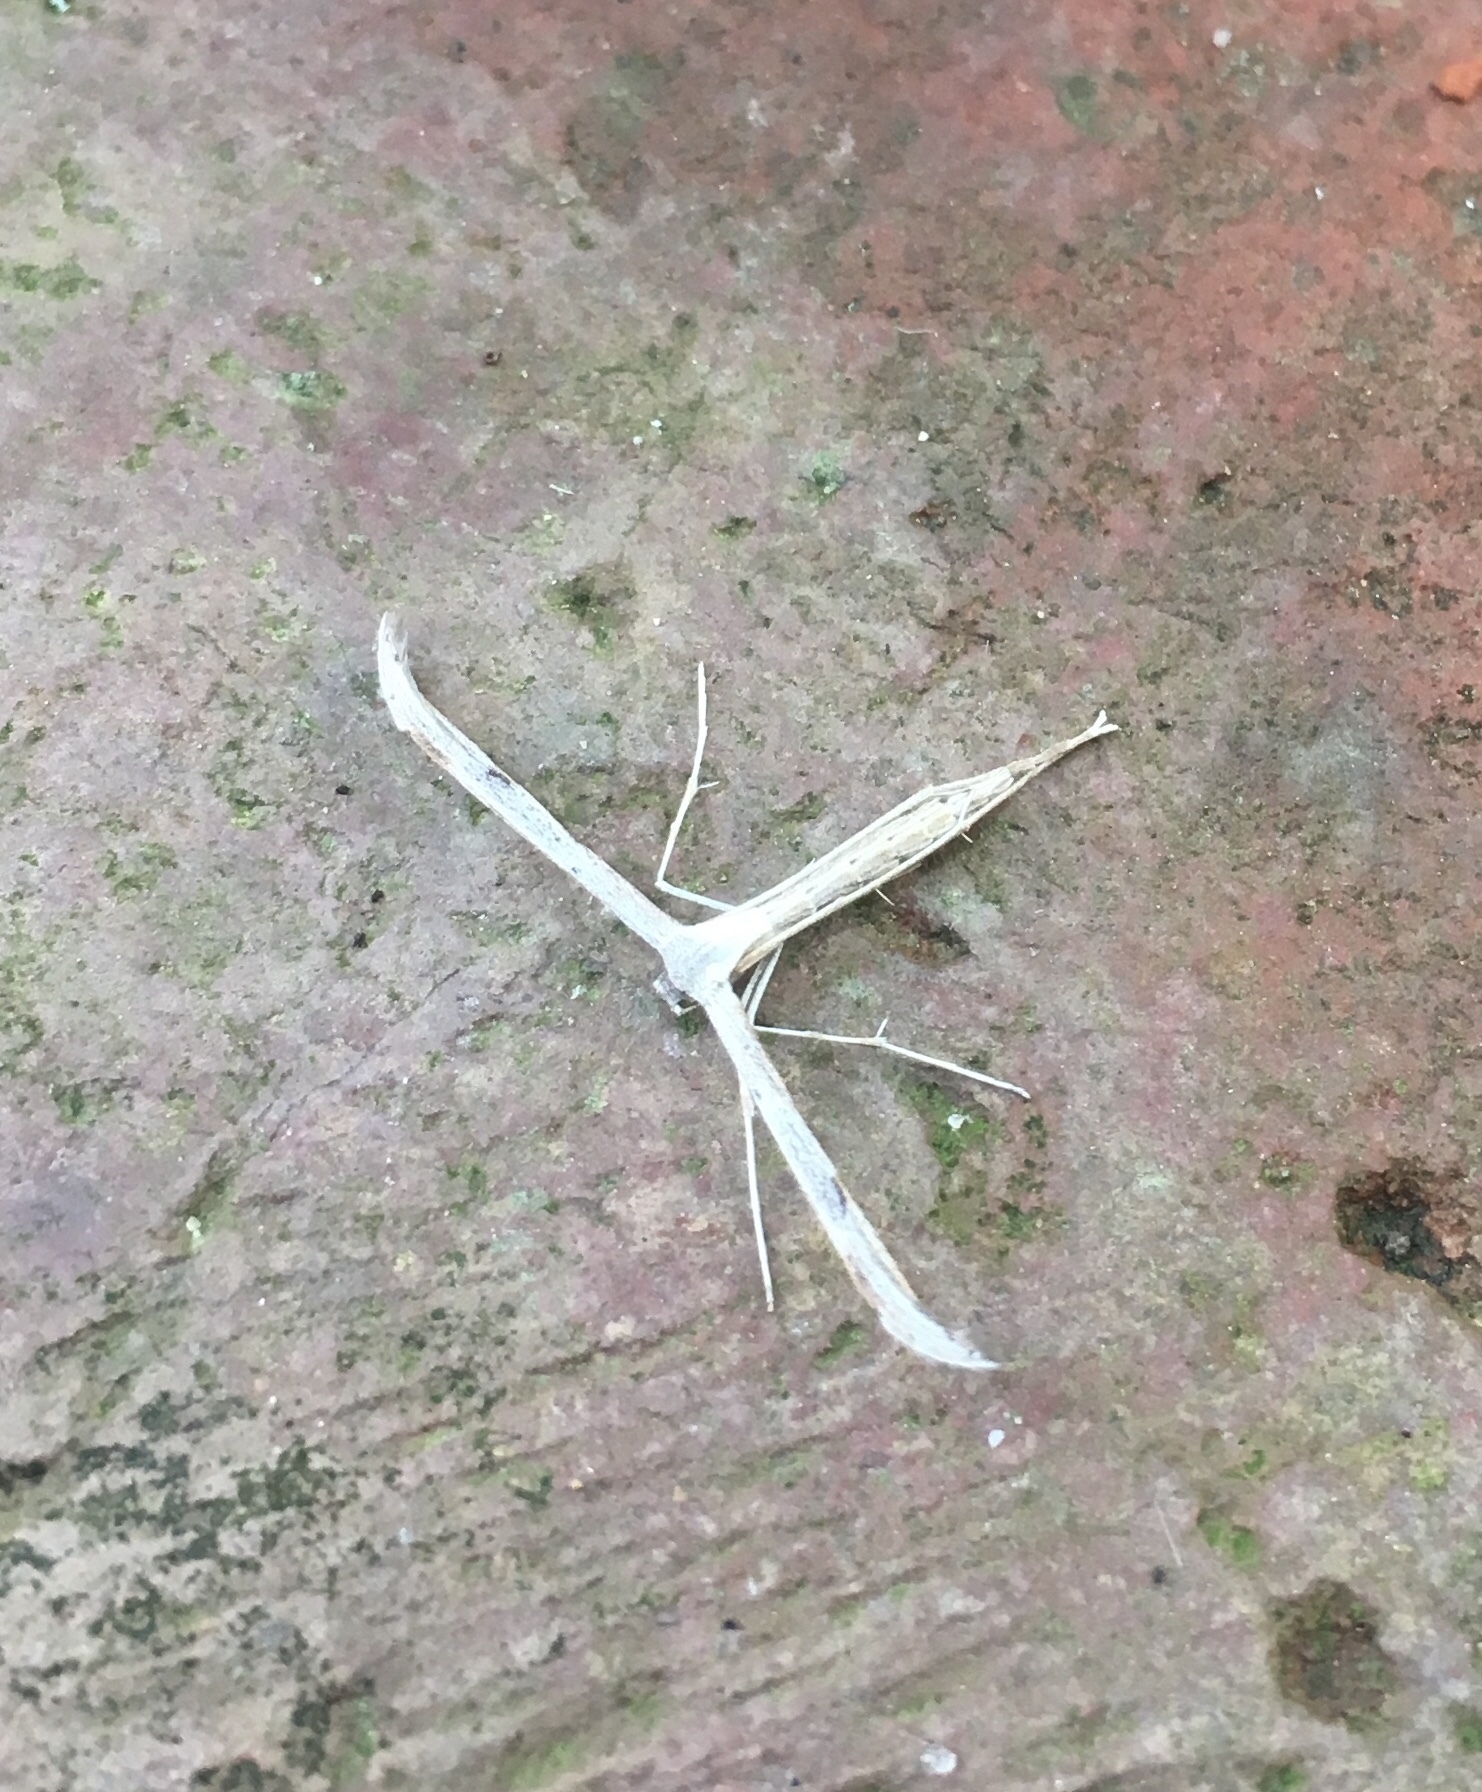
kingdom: Animalia
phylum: Arthropoda
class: Insecta
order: Lepidoptera
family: Pterophoridae
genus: Emmelina
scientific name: Emmelina monodactyla
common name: Common plume
